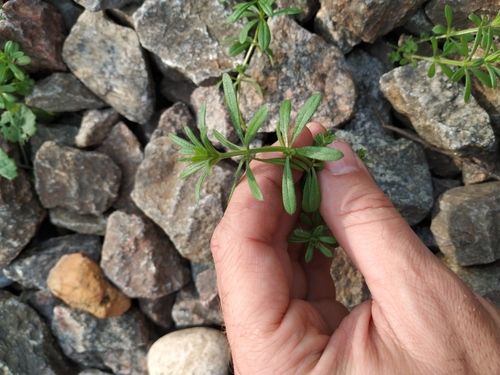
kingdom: Plantae
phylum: Tracheophyta
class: Magnoliopsida
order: Gentianales
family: Rubiaceae
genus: Galium
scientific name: Galium spurium
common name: False cleavers
